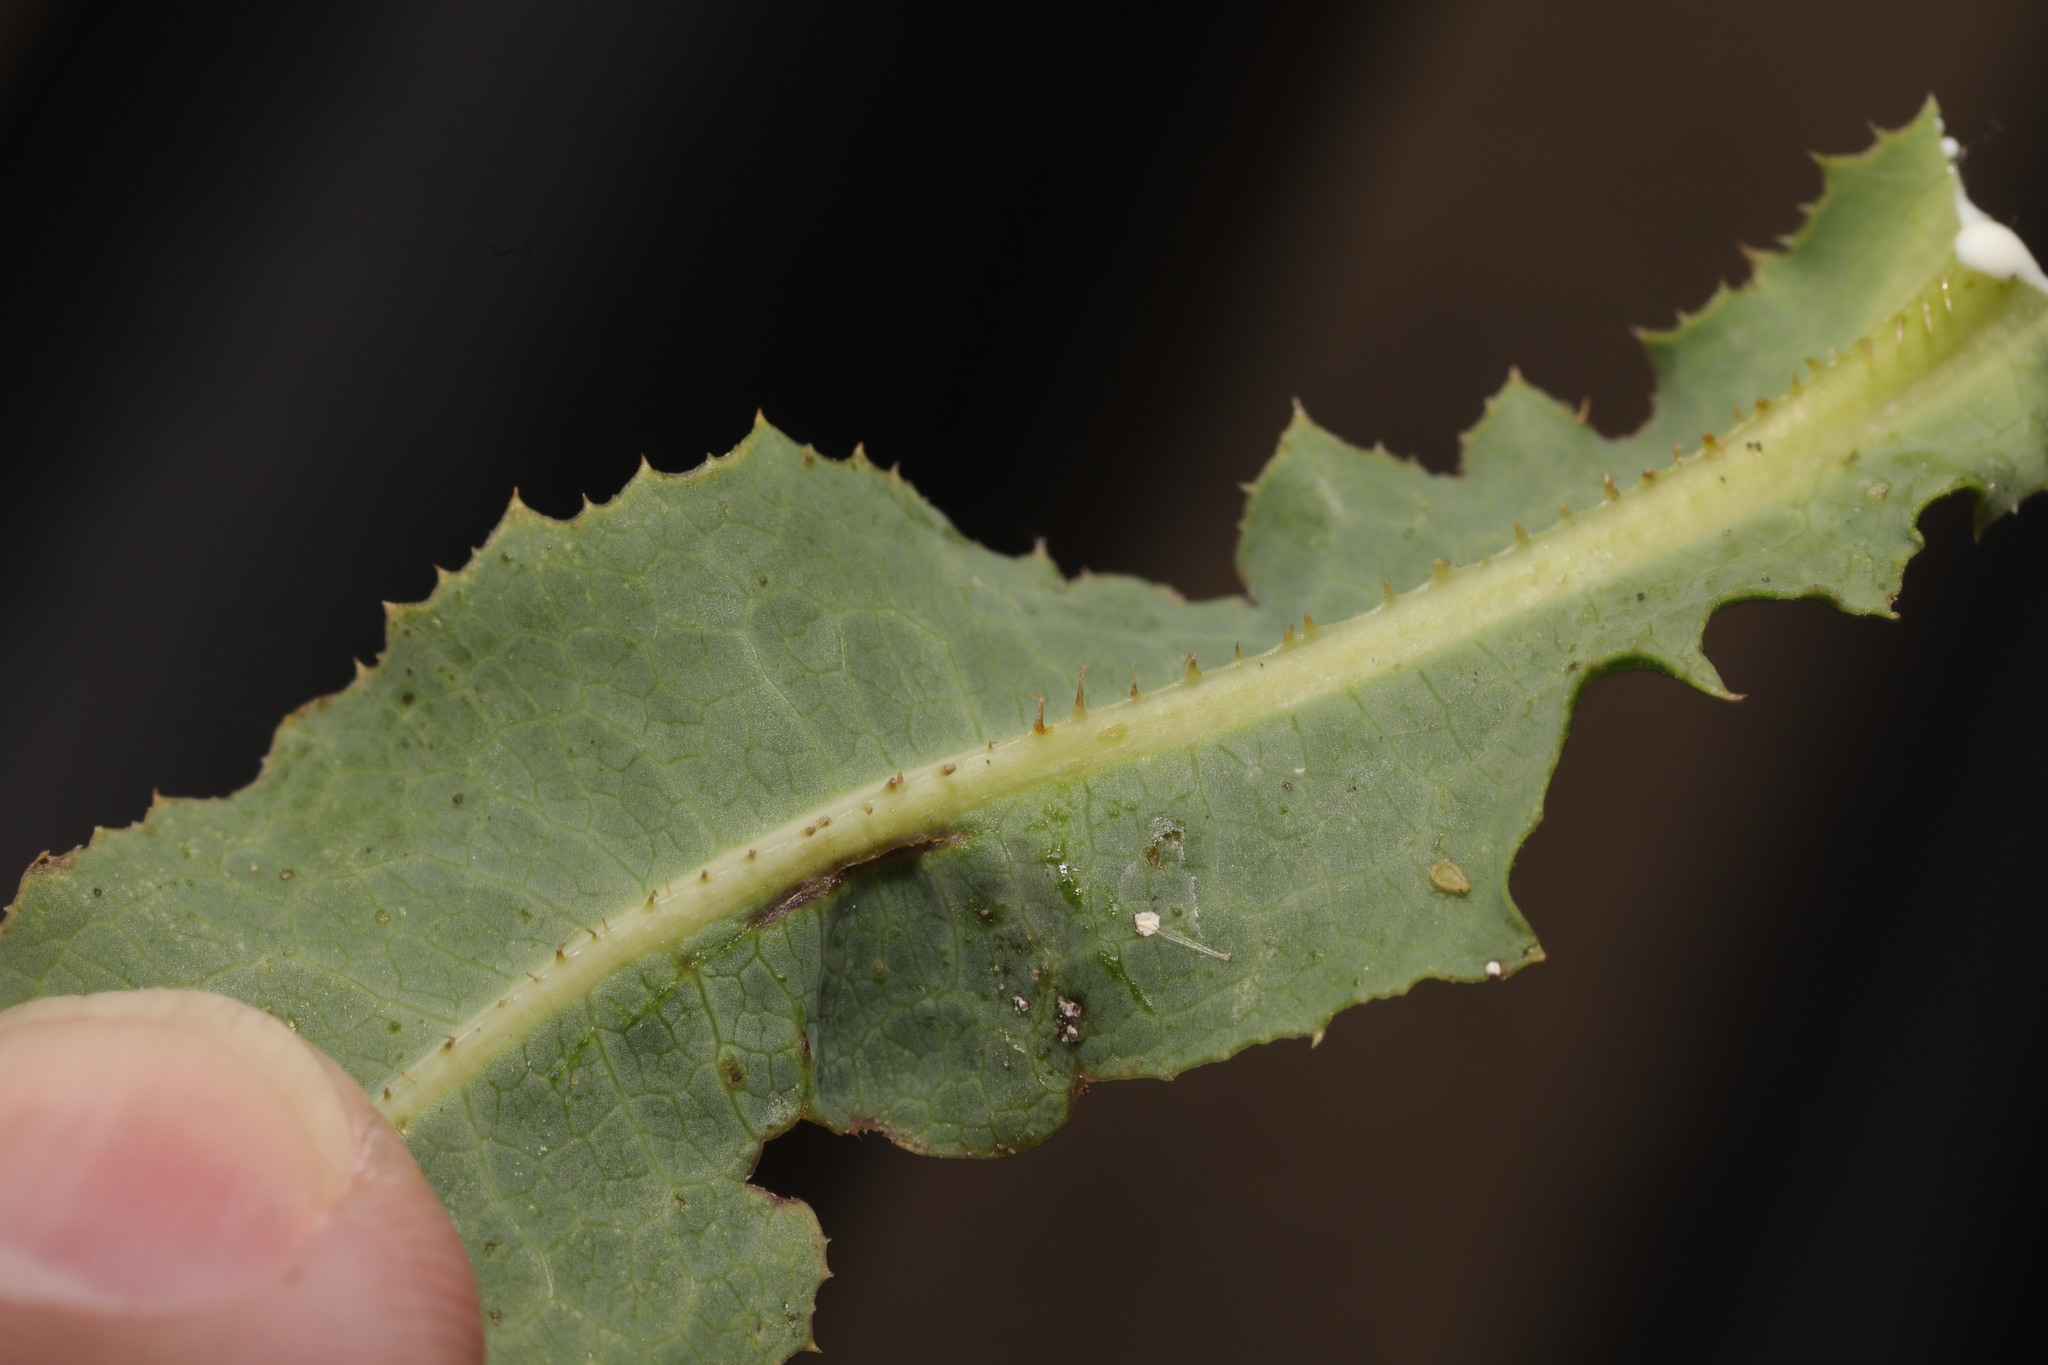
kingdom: Plantae
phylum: Tracheophyta
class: Magnoliopsida
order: Asterales
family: Asteraceae
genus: Lactuca
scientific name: Lactuca serriola
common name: Prickly lettuce
